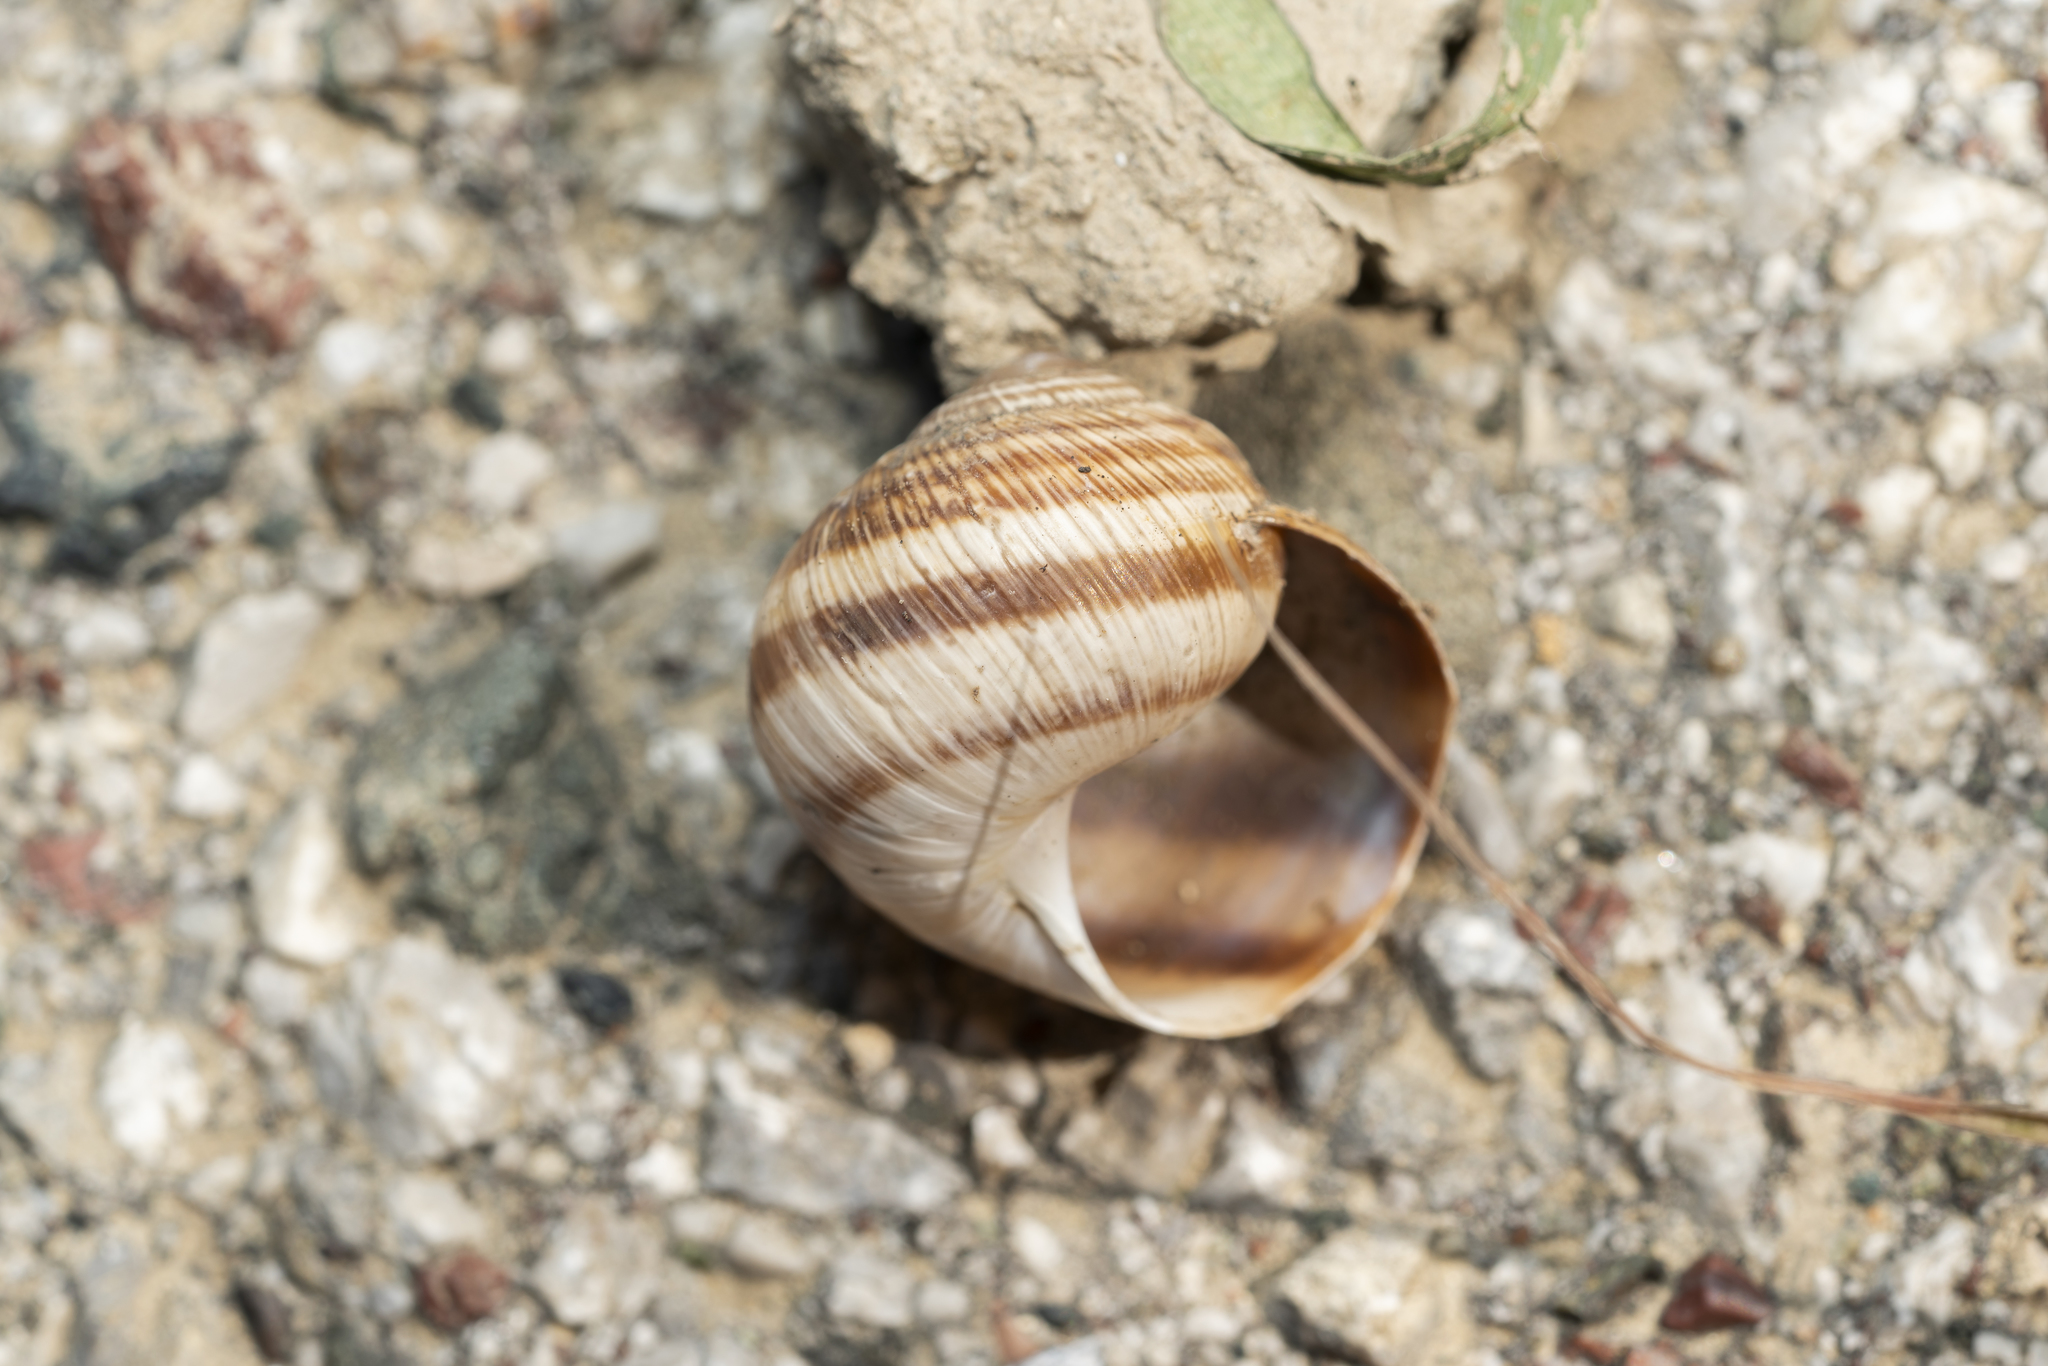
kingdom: Animalia
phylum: Mollusca
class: Gastropoda
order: Stylommatophora
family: Helicidae
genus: Helix
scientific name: Helix nucula
